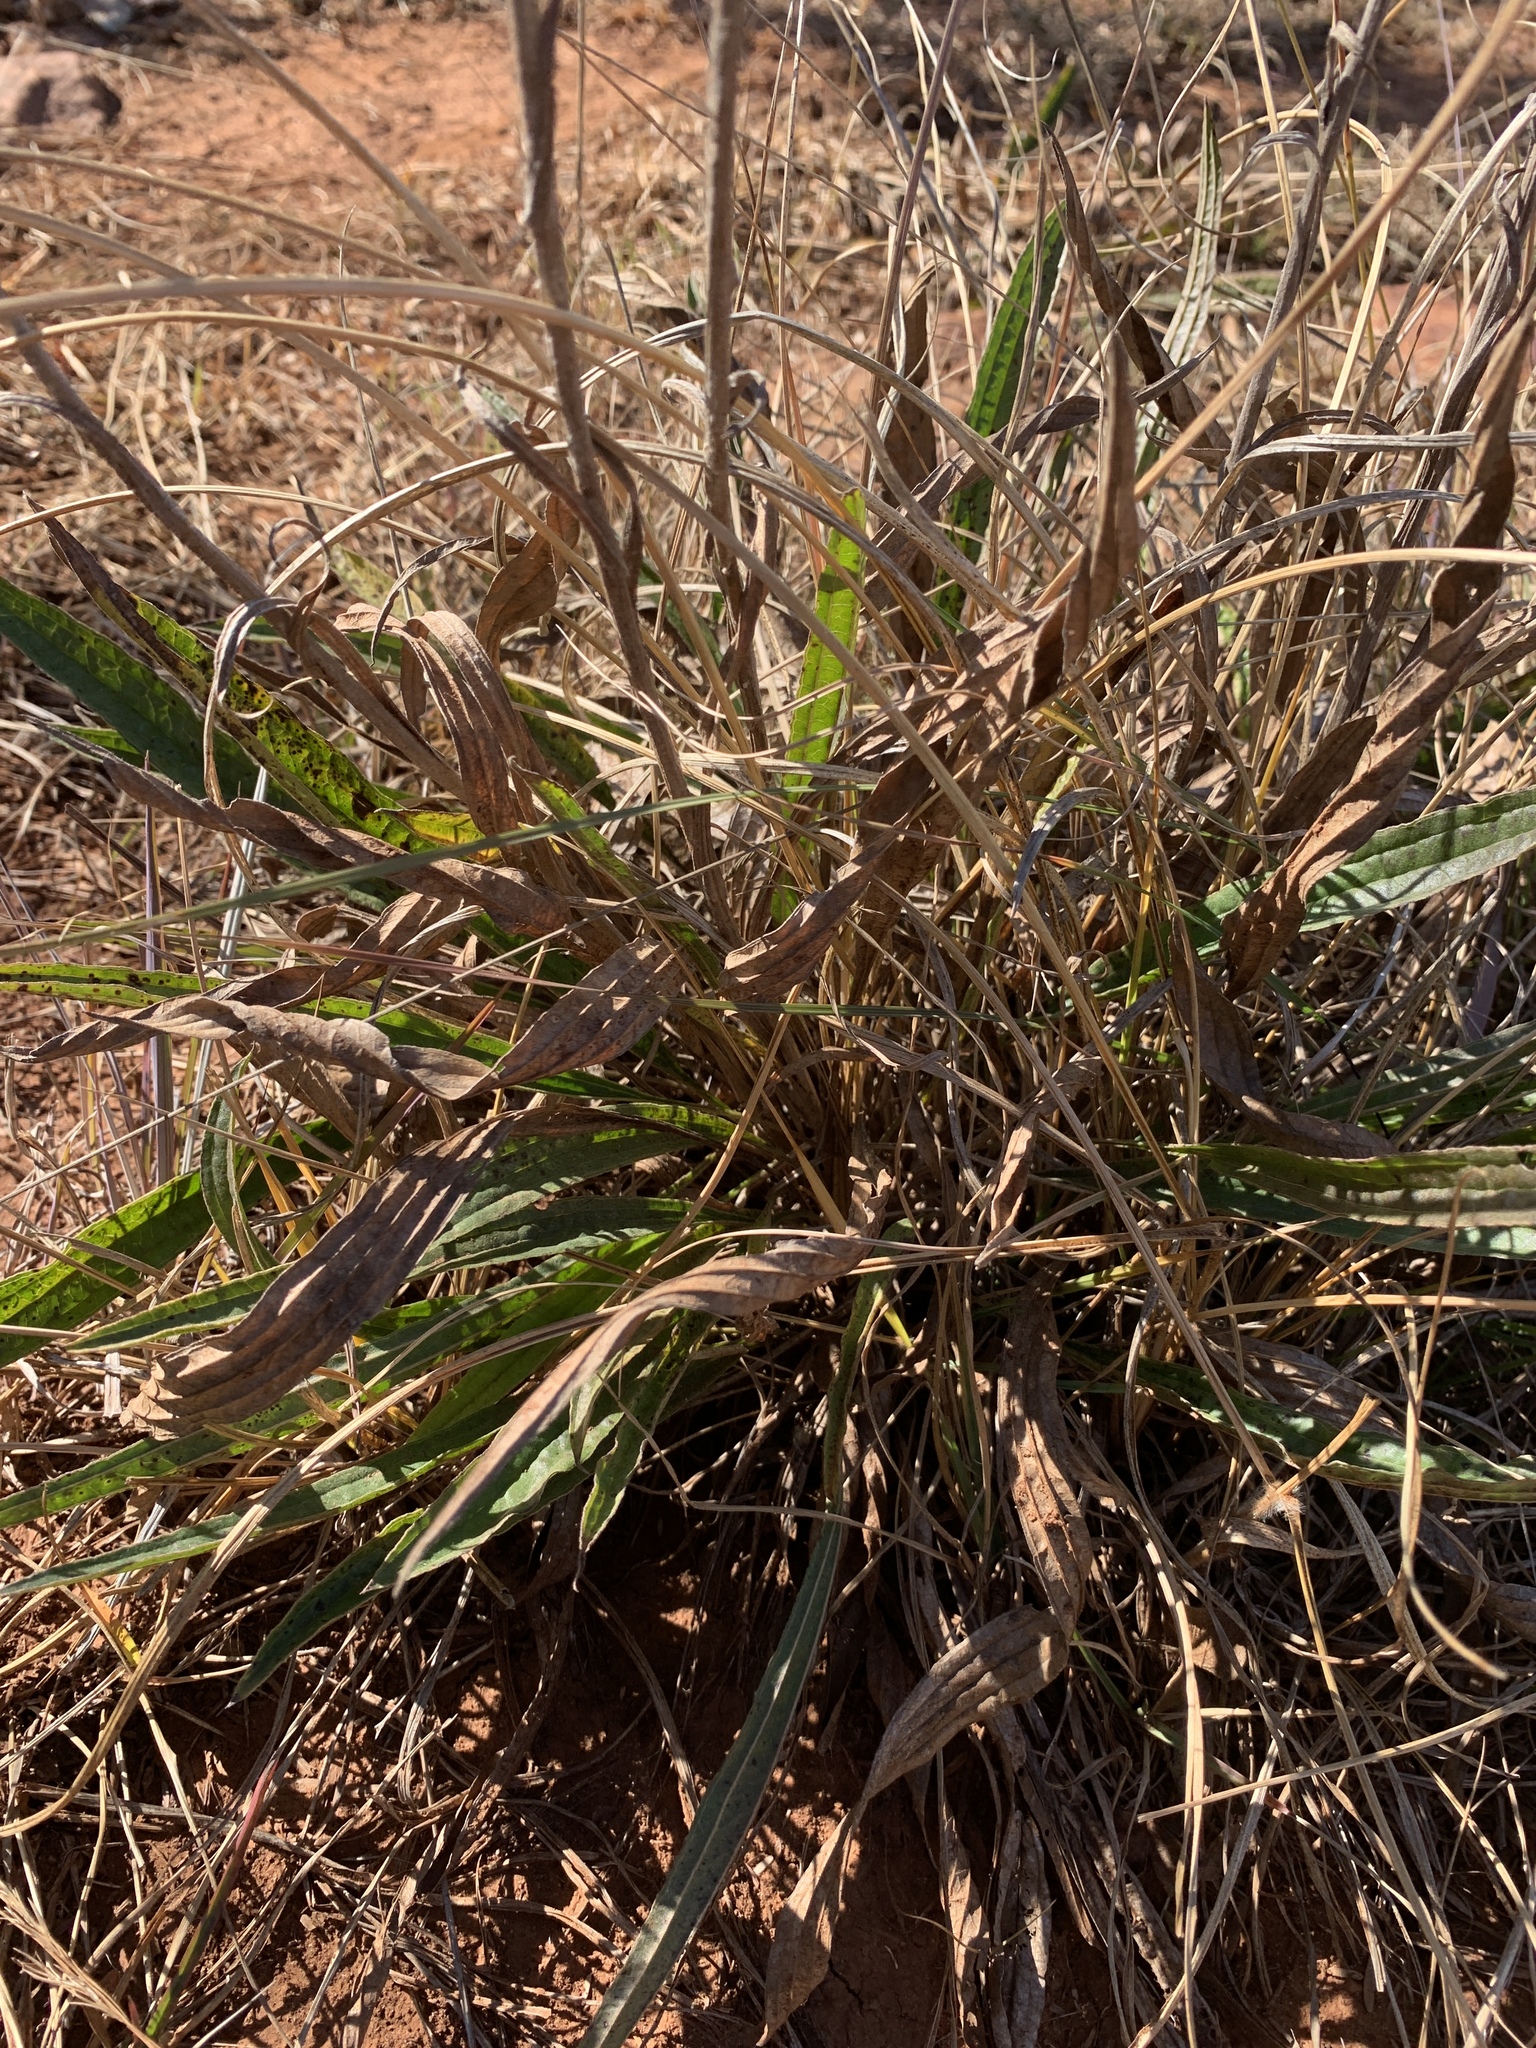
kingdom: Plantae
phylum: Tracheophyta
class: Magnoliopsida
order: Asterales
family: Asteraceae
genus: Helichrysum
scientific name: Helichrysum nudifolium
